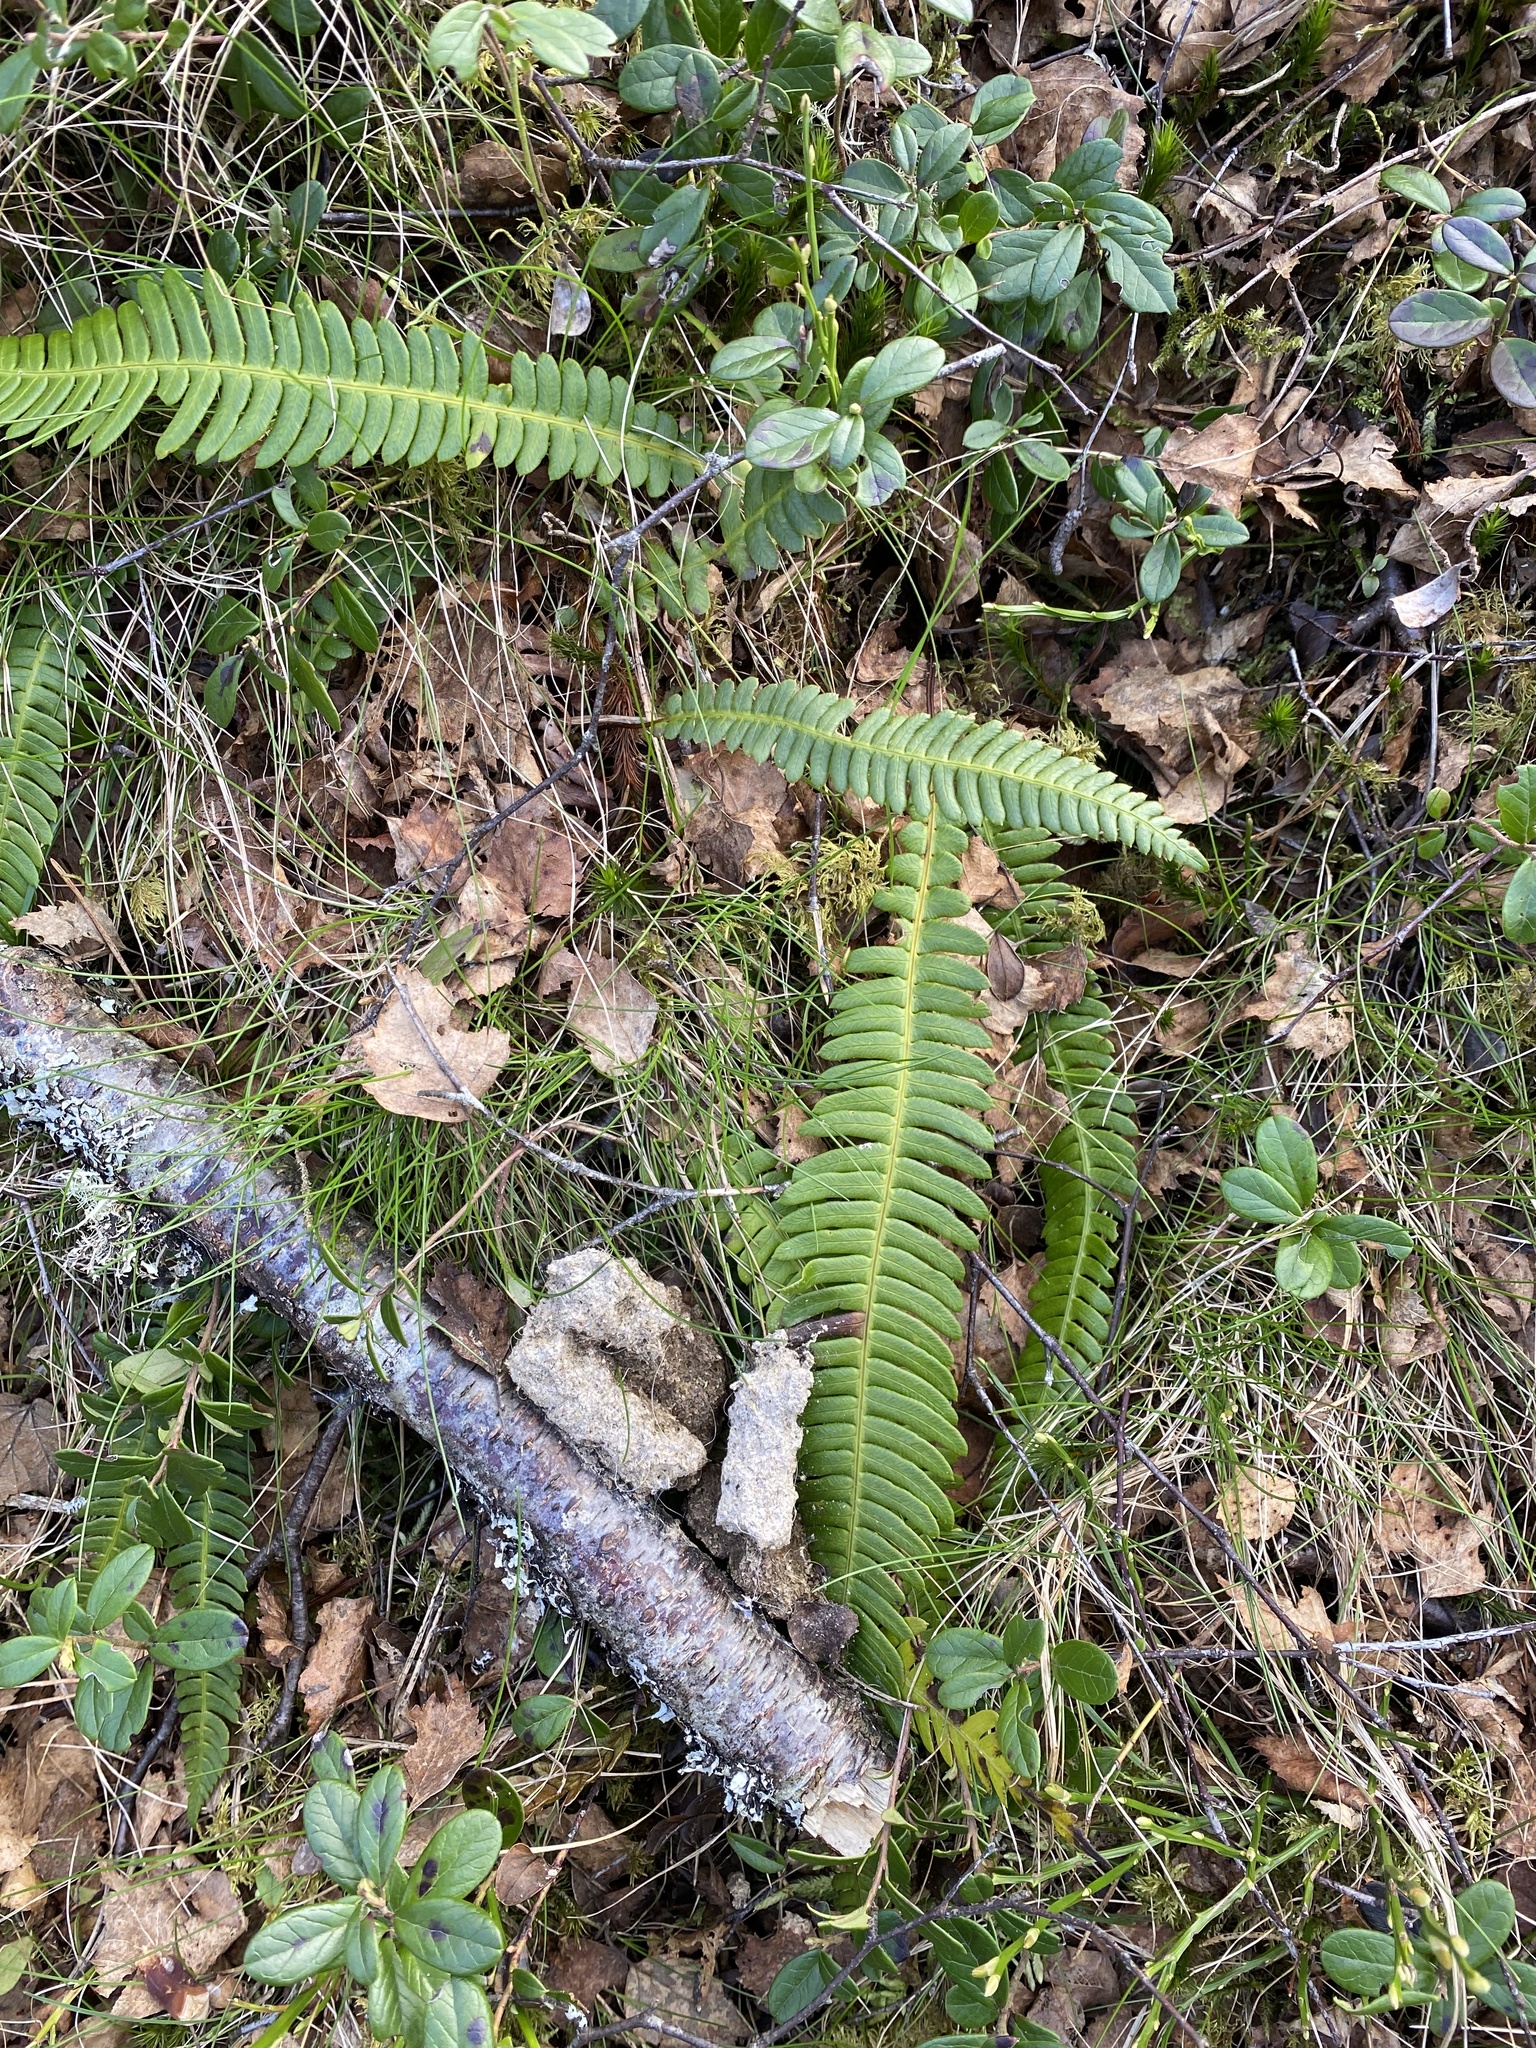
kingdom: Plantae
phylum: Tracheophyta
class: Polypodiopsida
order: Polypodiales
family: Blechnaceae
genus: Struthiopteris
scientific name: Struthiopteris spicant
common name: Deer fern
